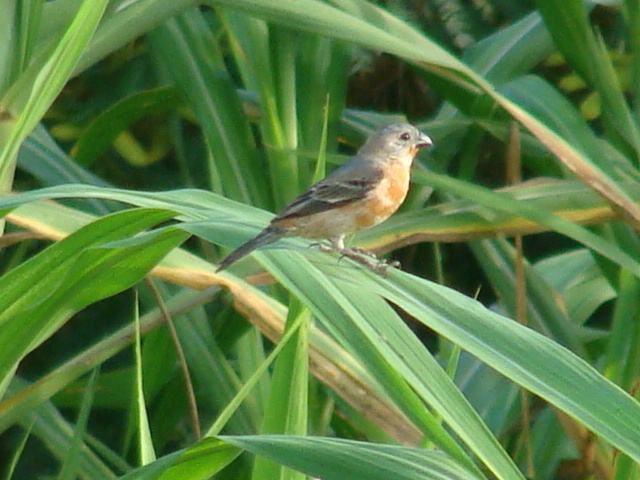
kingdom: Animalia
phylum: Chordata
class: Aves
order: Passeriformes
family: Thraupidae
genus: Sporophila
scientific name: Sporophila minuta
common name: Ruddy-breasted seedeater
